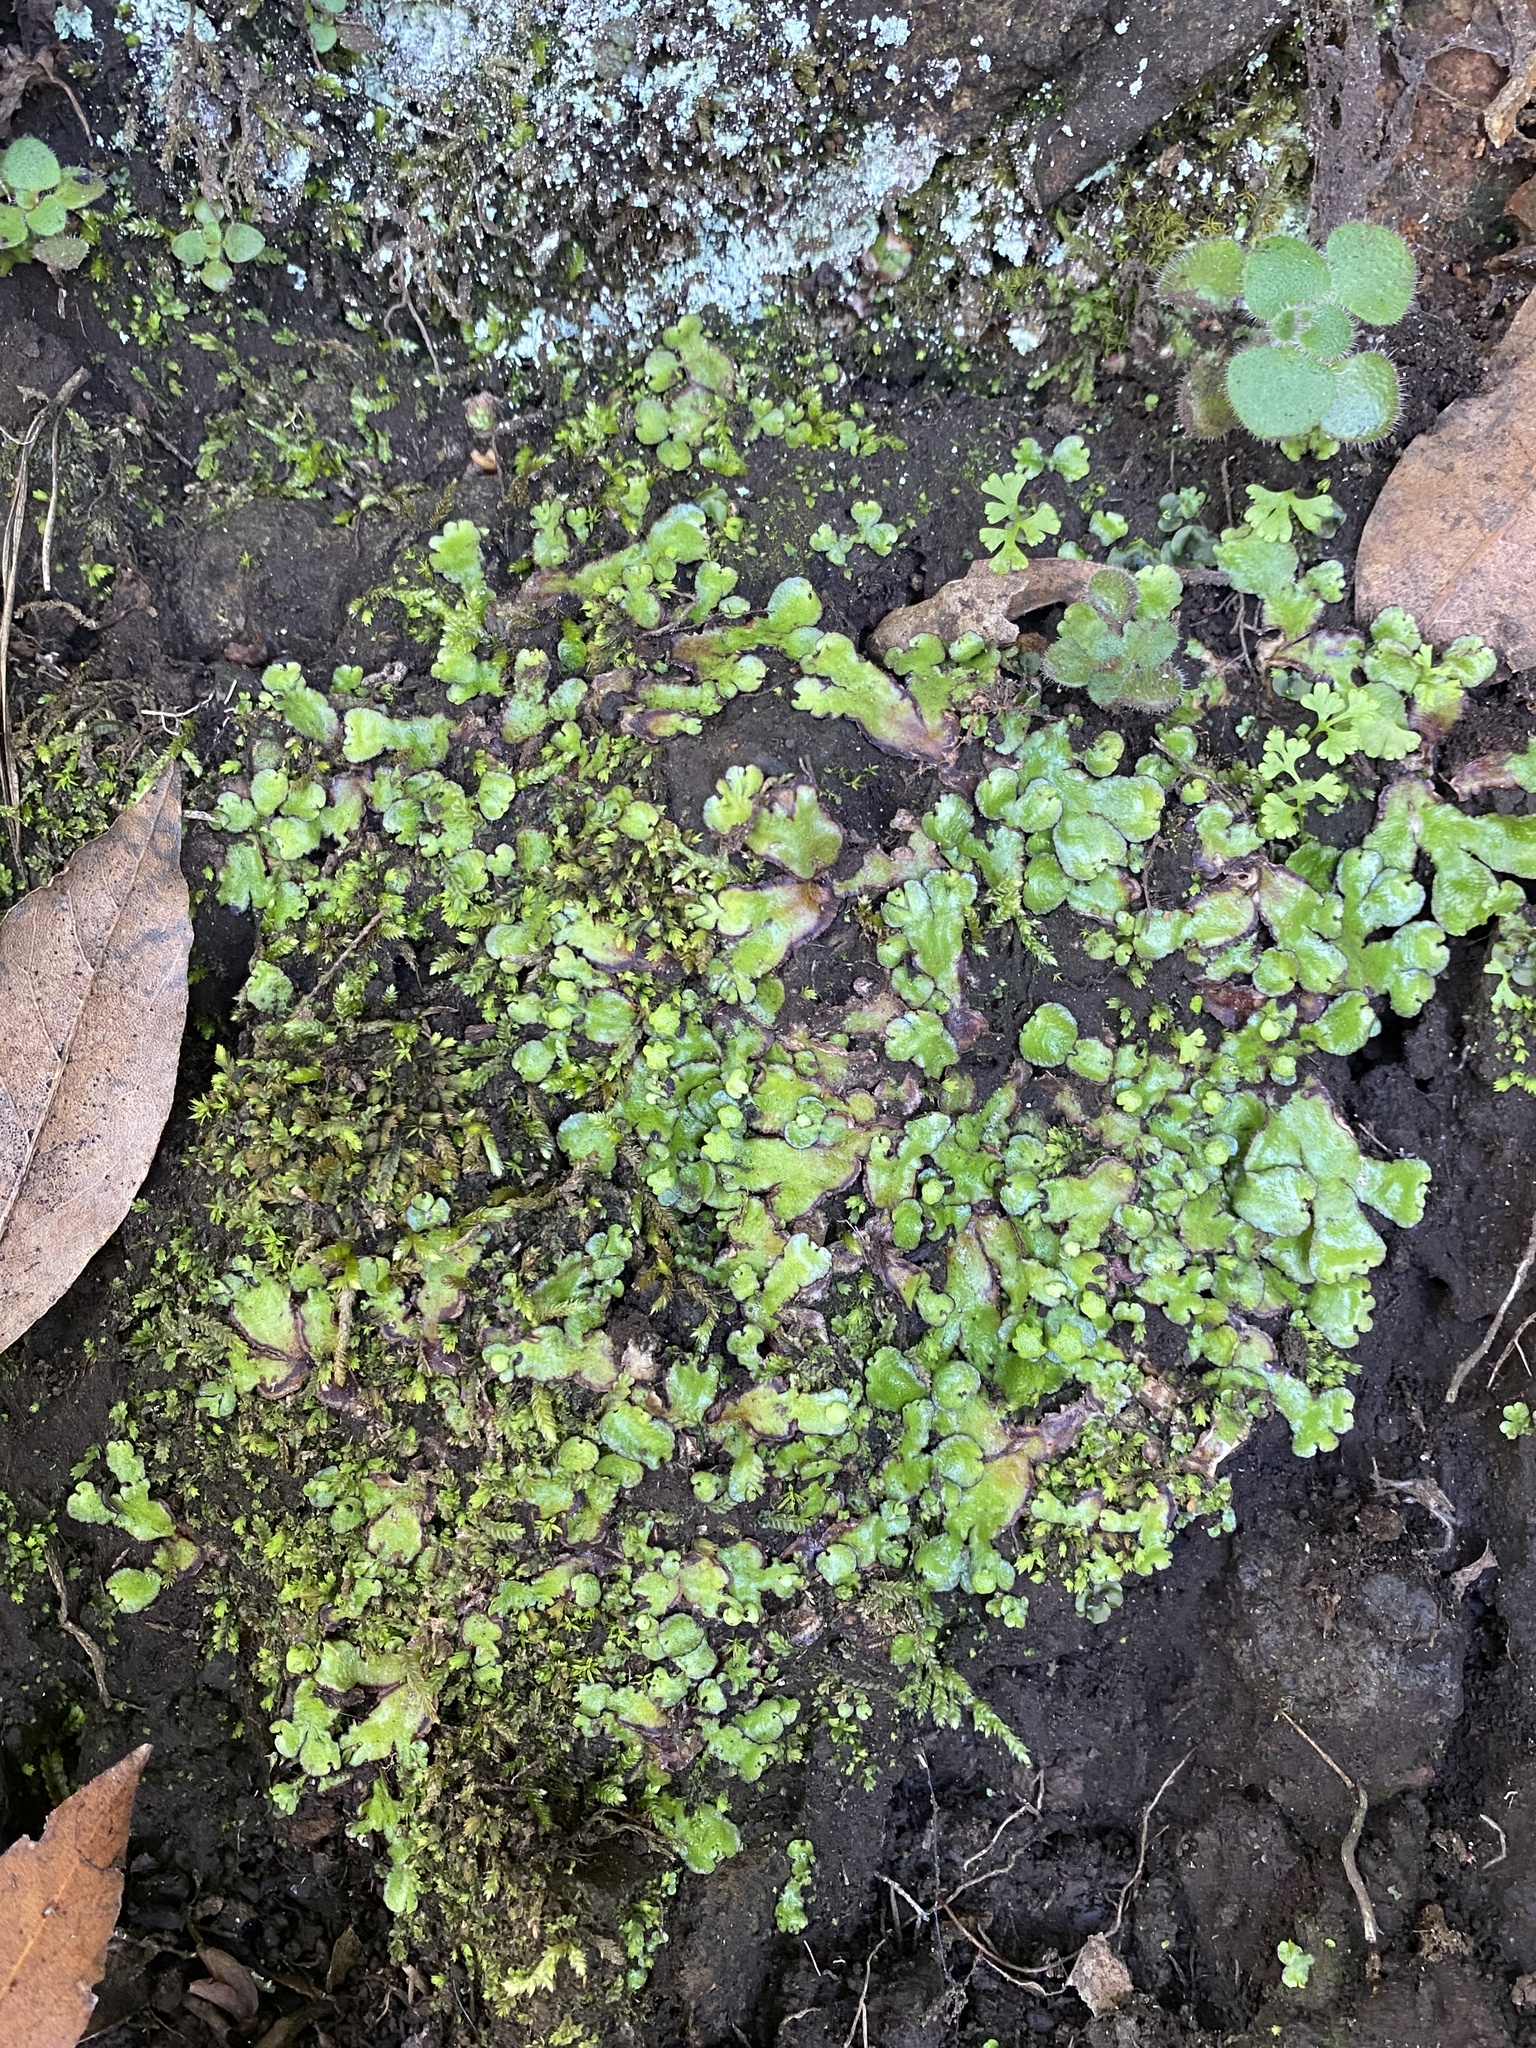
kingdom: Plantae
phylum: Marchantiophyta
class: Marchantiopsida
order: Marchantiales
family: Aytoniaceae
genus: Reboulia
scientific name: Reboulia hemisphaerica
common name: Purple-margined liverwort
